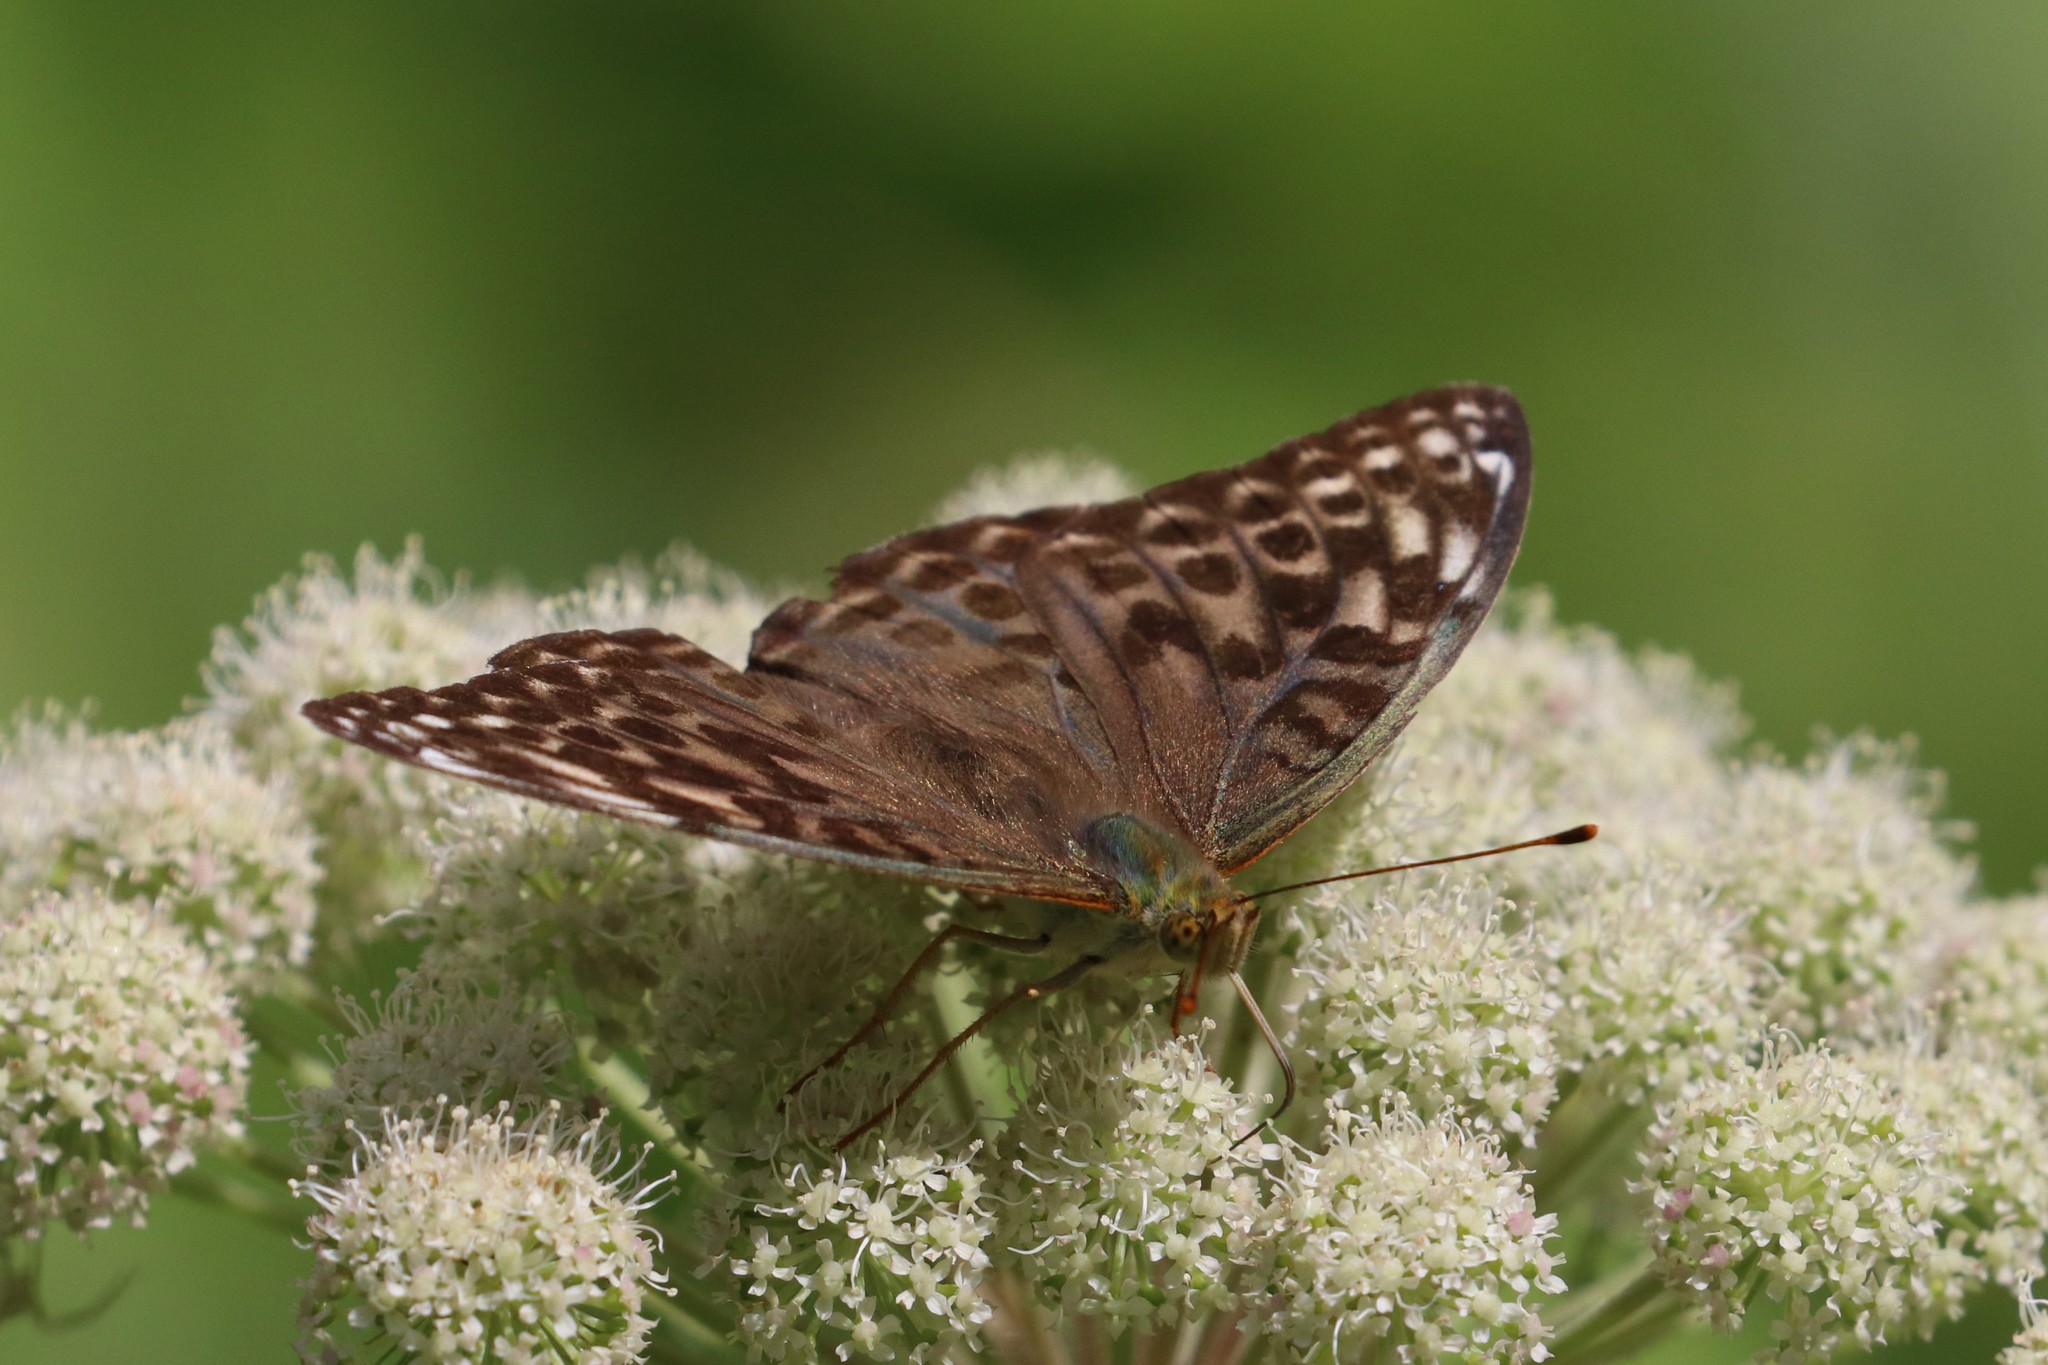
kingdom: Animalia
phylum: Arthropoda
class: Insecta
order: Lepidoptera
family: Nymphalidae
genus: Argynnis
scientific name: Argynnis paphia
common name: Silver-washed fritillary
